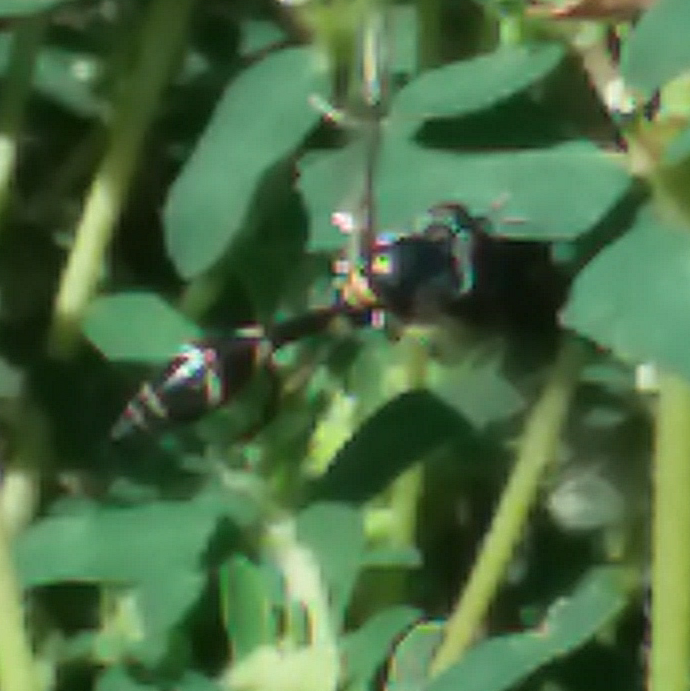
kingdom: Animalia
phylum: Arthropoda
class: Insecta
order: Diptera
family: Syrphidae
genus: Dioprosopa
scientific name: Dioprosopa clavatus
